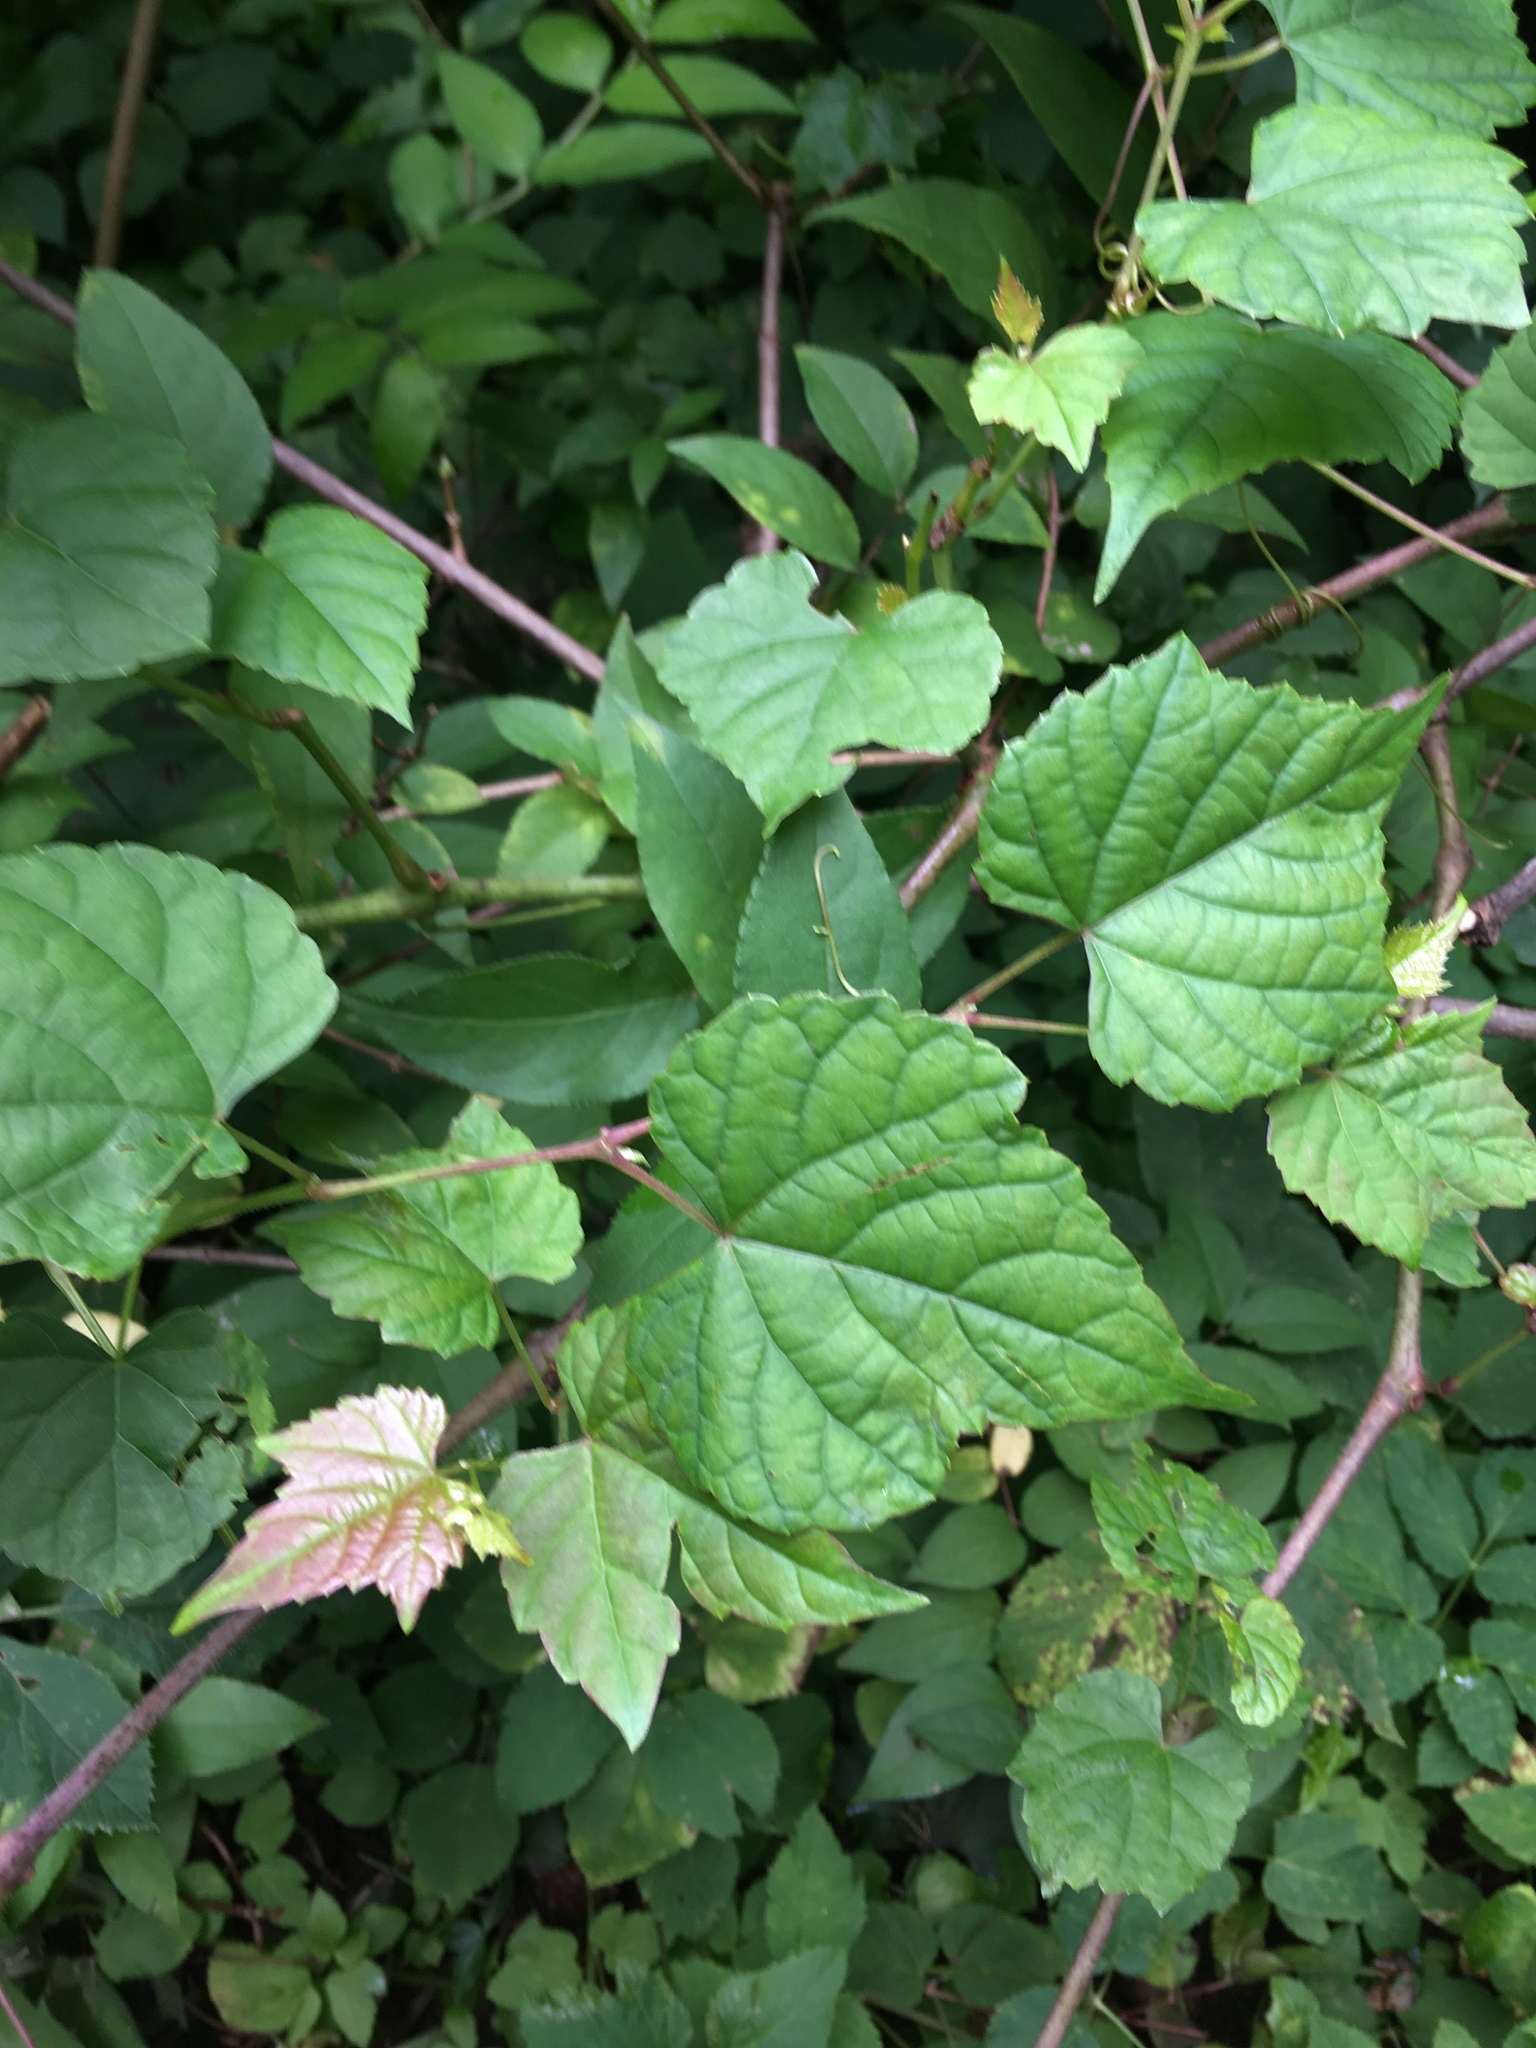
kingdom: Plantae
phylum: Tracheophyta
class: Magnoliopsida
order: Vitales
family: Vitaceae
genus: Ampelopsis
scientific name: Ampelopsis glandulosa
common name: Amur peppervine
